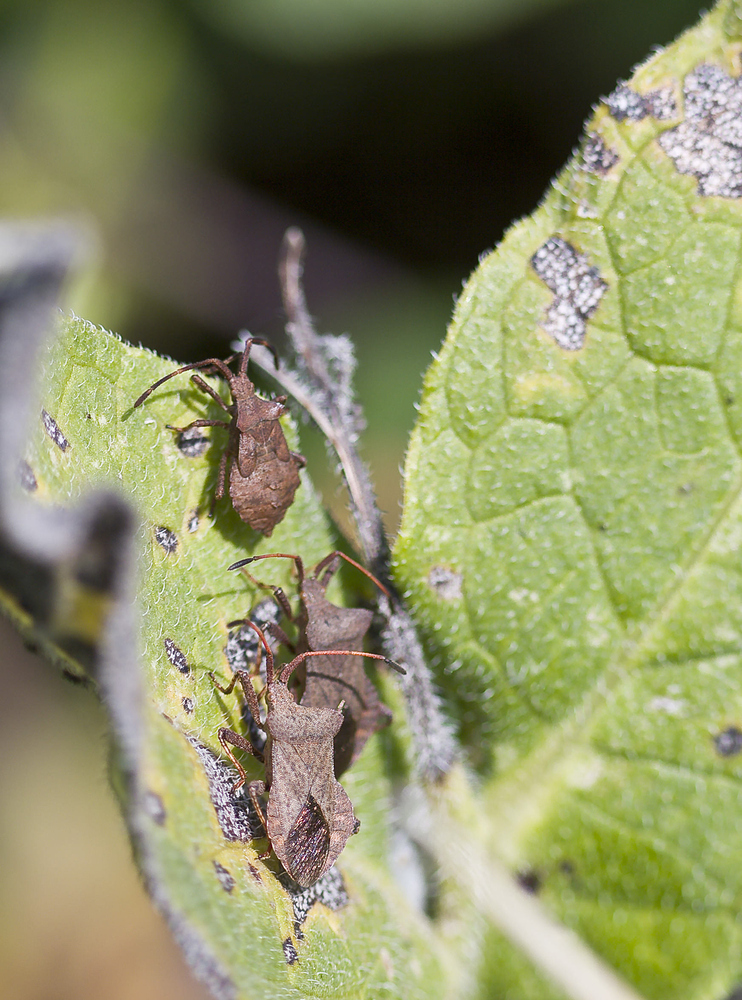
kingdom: Animalia
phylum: Arthropoda
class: Insecta
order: Hemiptera
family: Coreidae
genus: Coreus
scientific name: Coreus marginatus
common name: Dock bug
